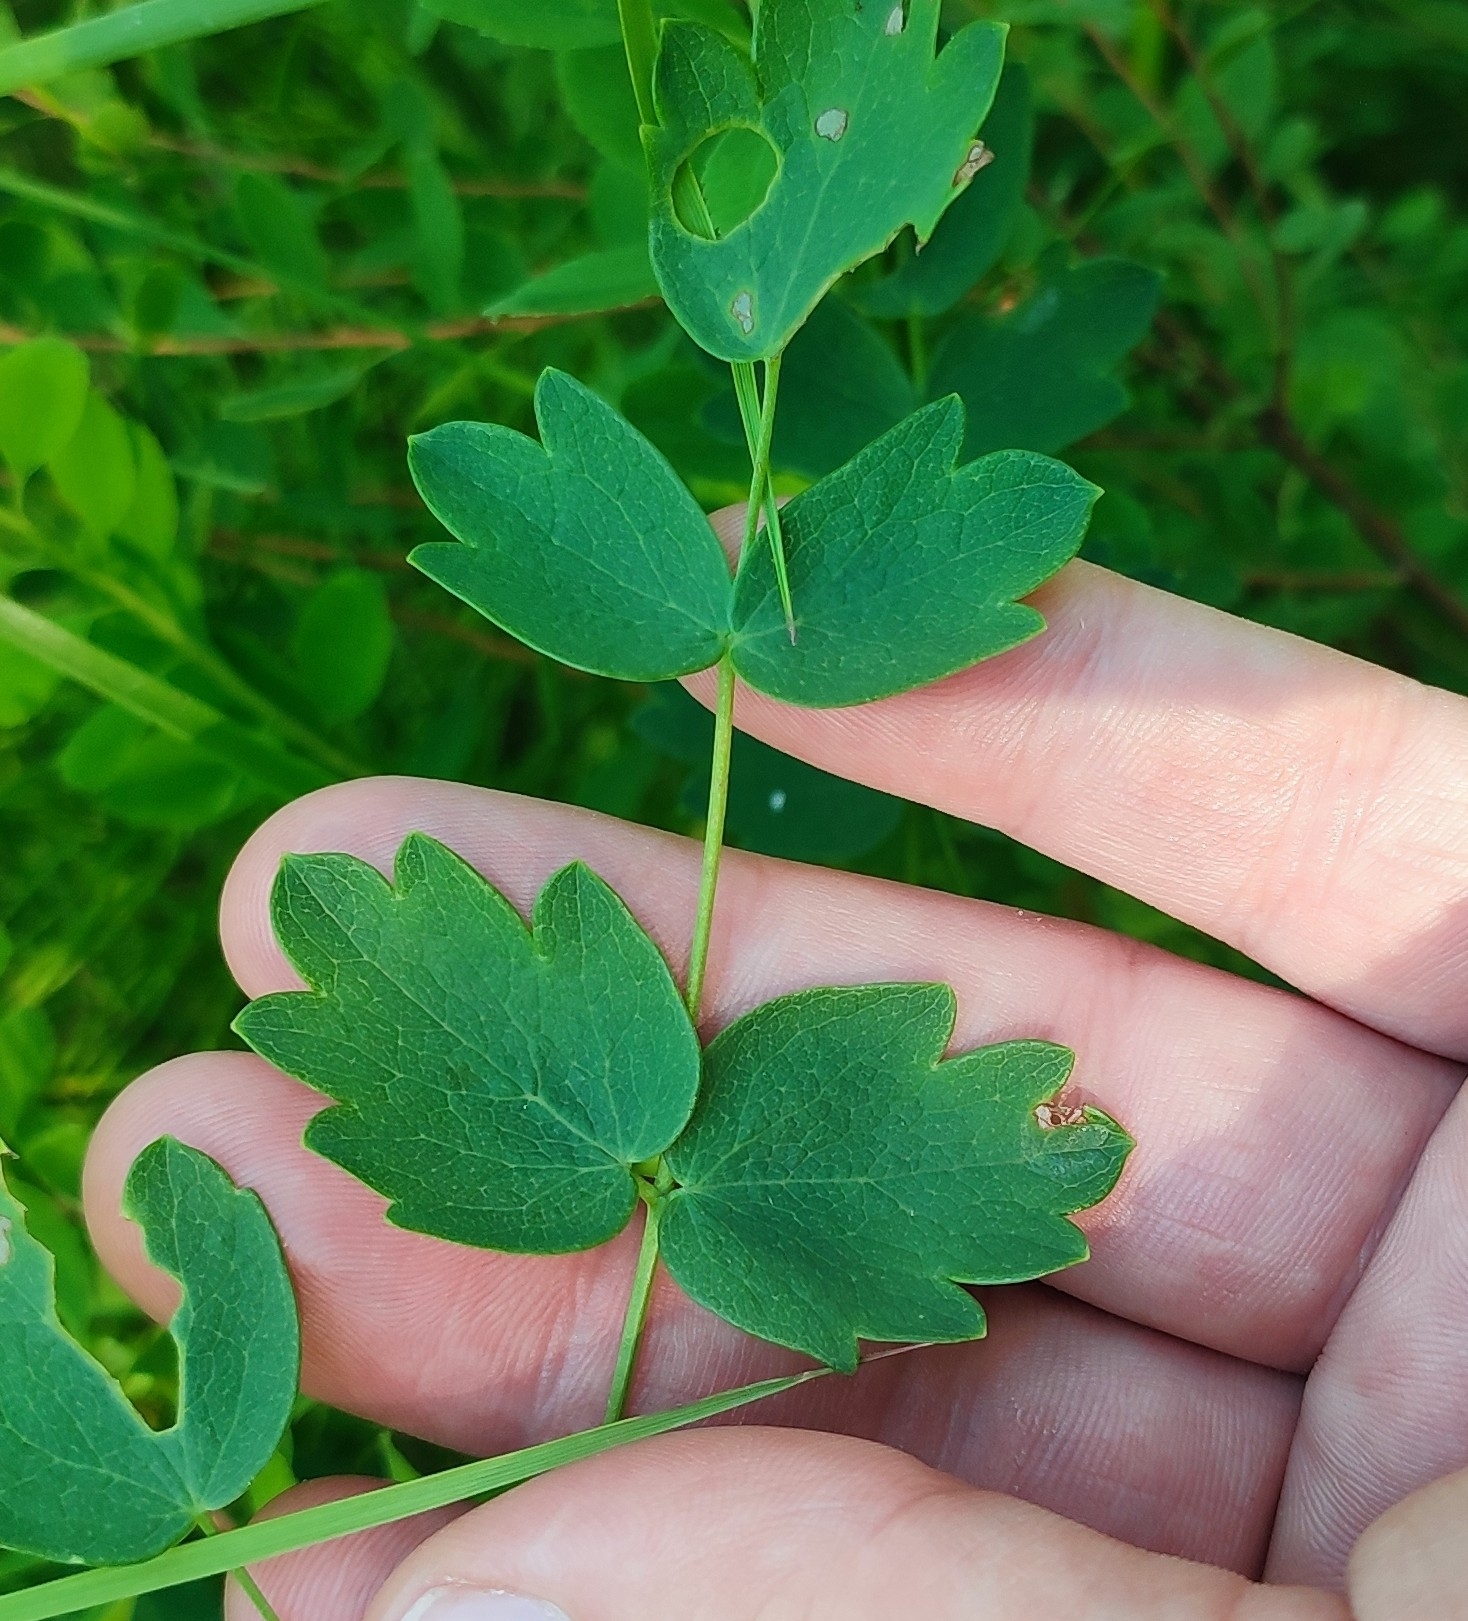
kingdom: Plantae
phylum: Tracheophyta
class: Magnoliopsida
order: Ranunculales
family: Ranunculaceae
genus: Thalictrum
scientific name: Thalictrum minus
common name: Lesser meadow-rue
